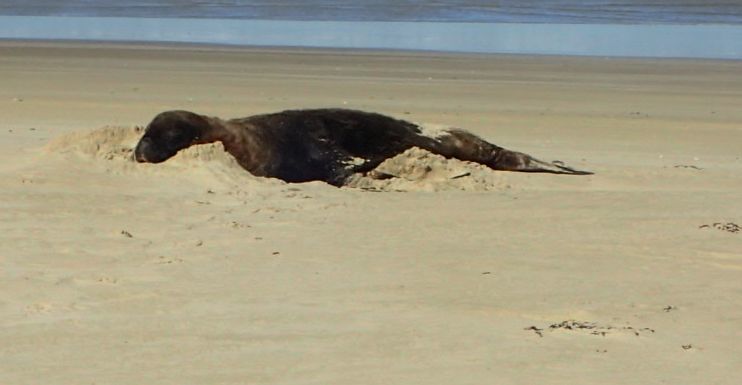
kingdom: Animalia
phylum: Chordata
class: Mammalia
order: Carnivora
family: Otariidae
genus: Phocarctos
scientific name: Phocarctos hookeri
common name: New zealand sea lion
